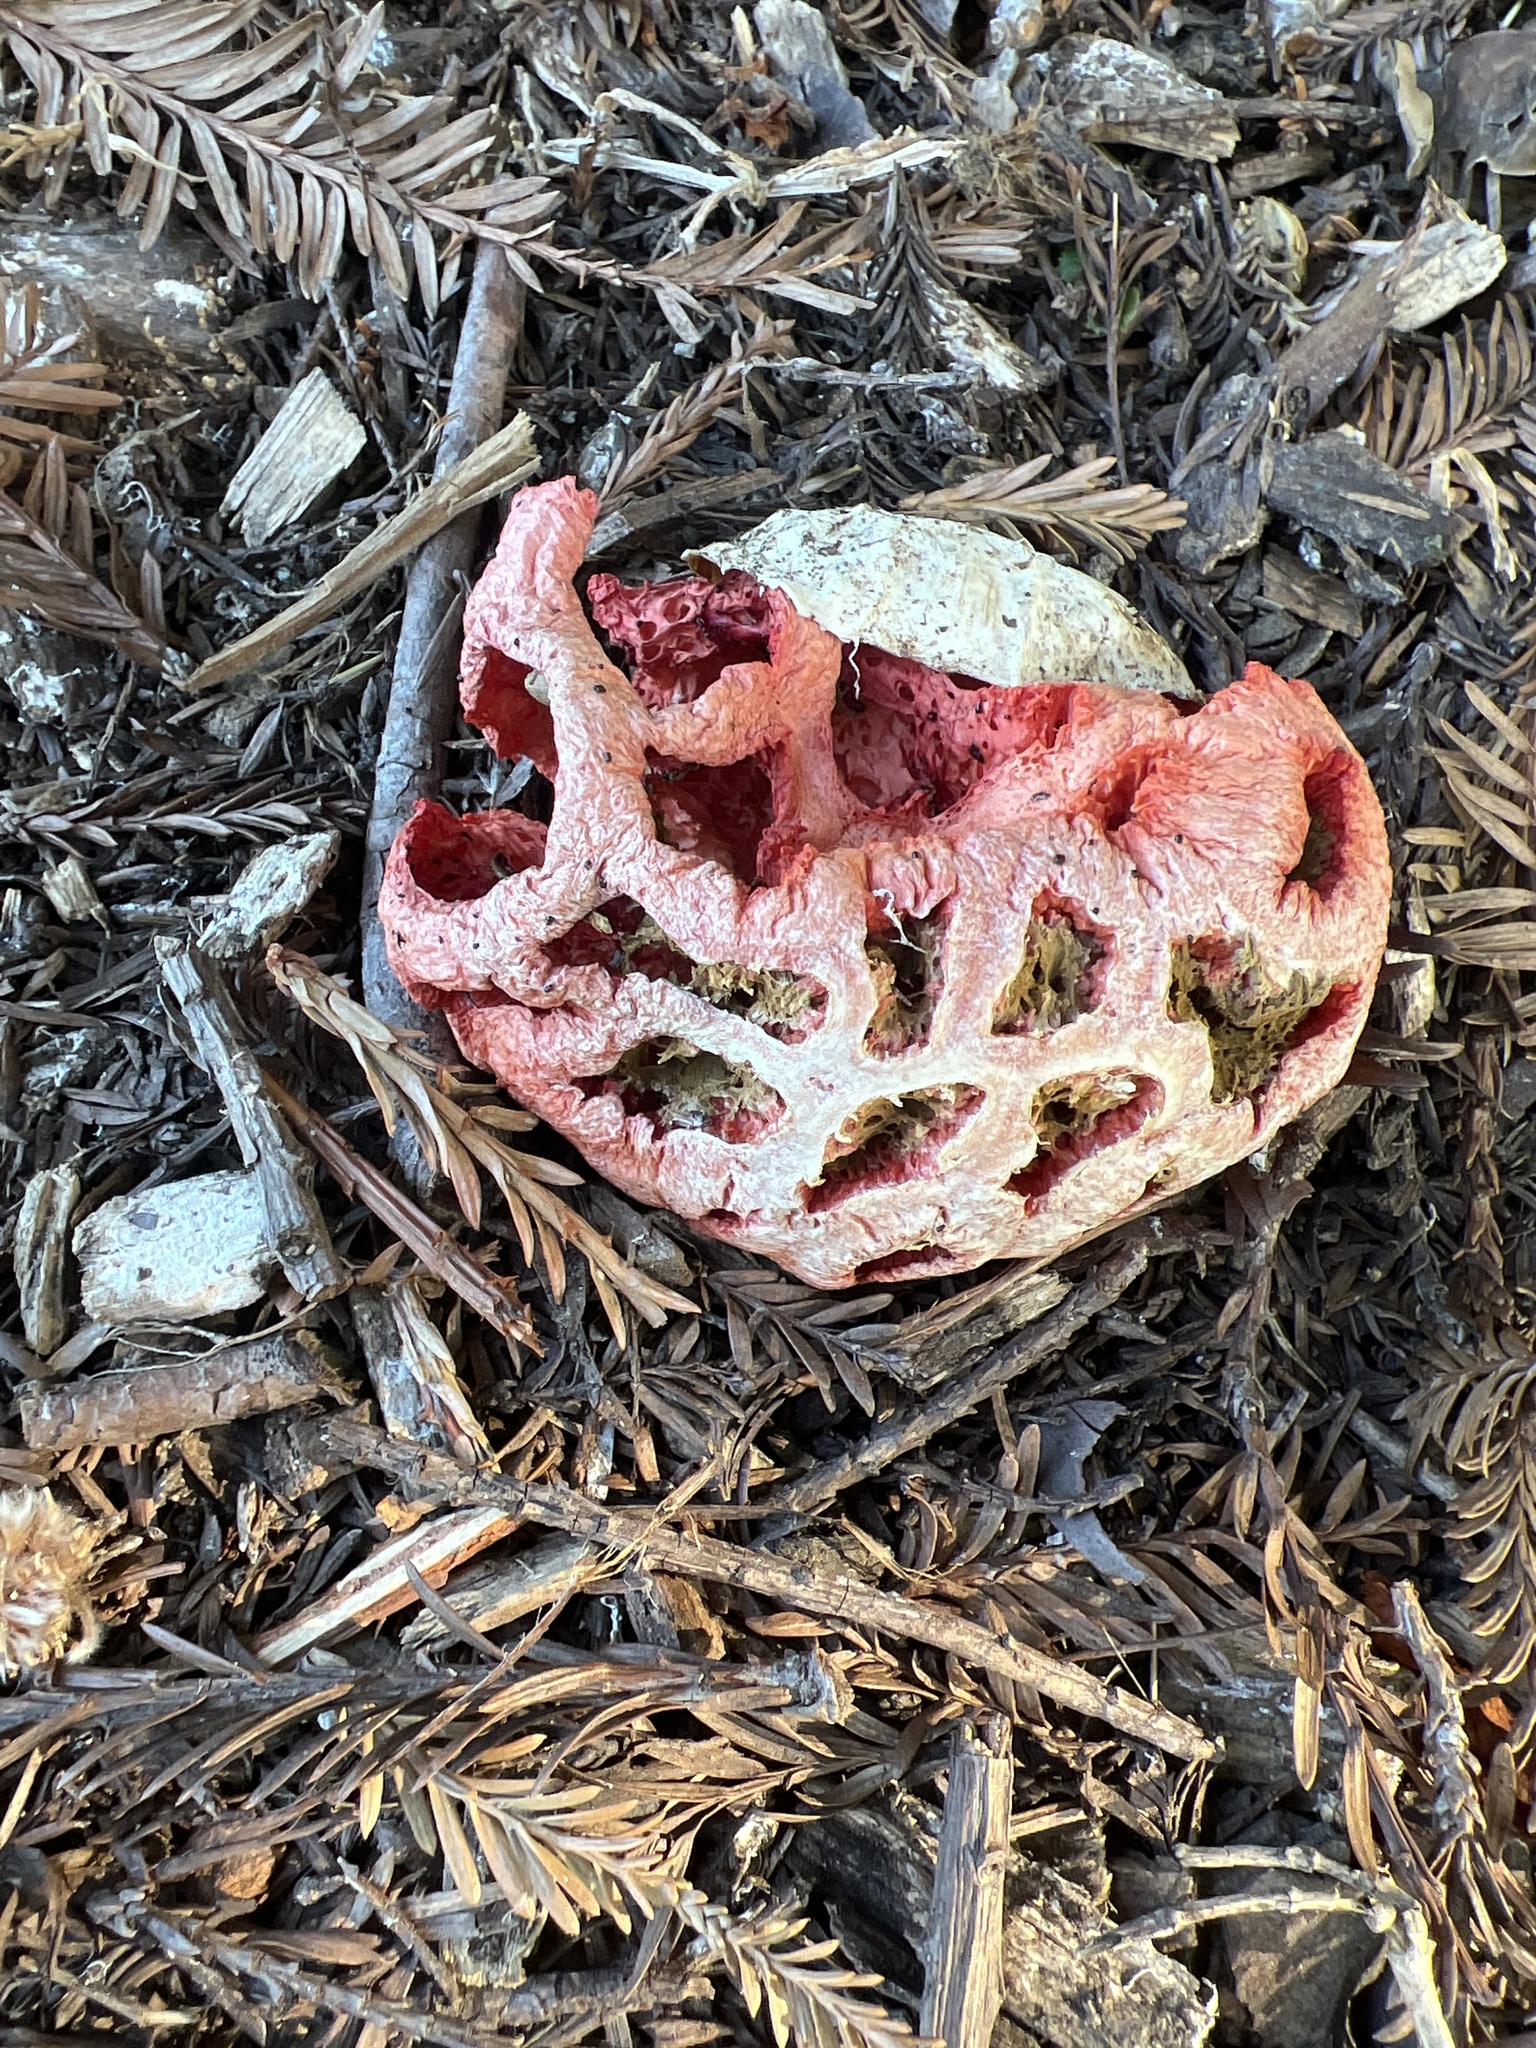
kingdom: Fungi
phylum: Basidiomycota
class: Agaricomycetes
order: Phallales
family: Phallaceae
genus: Clathrus
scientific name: Clathrus ruber
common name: Red cage
